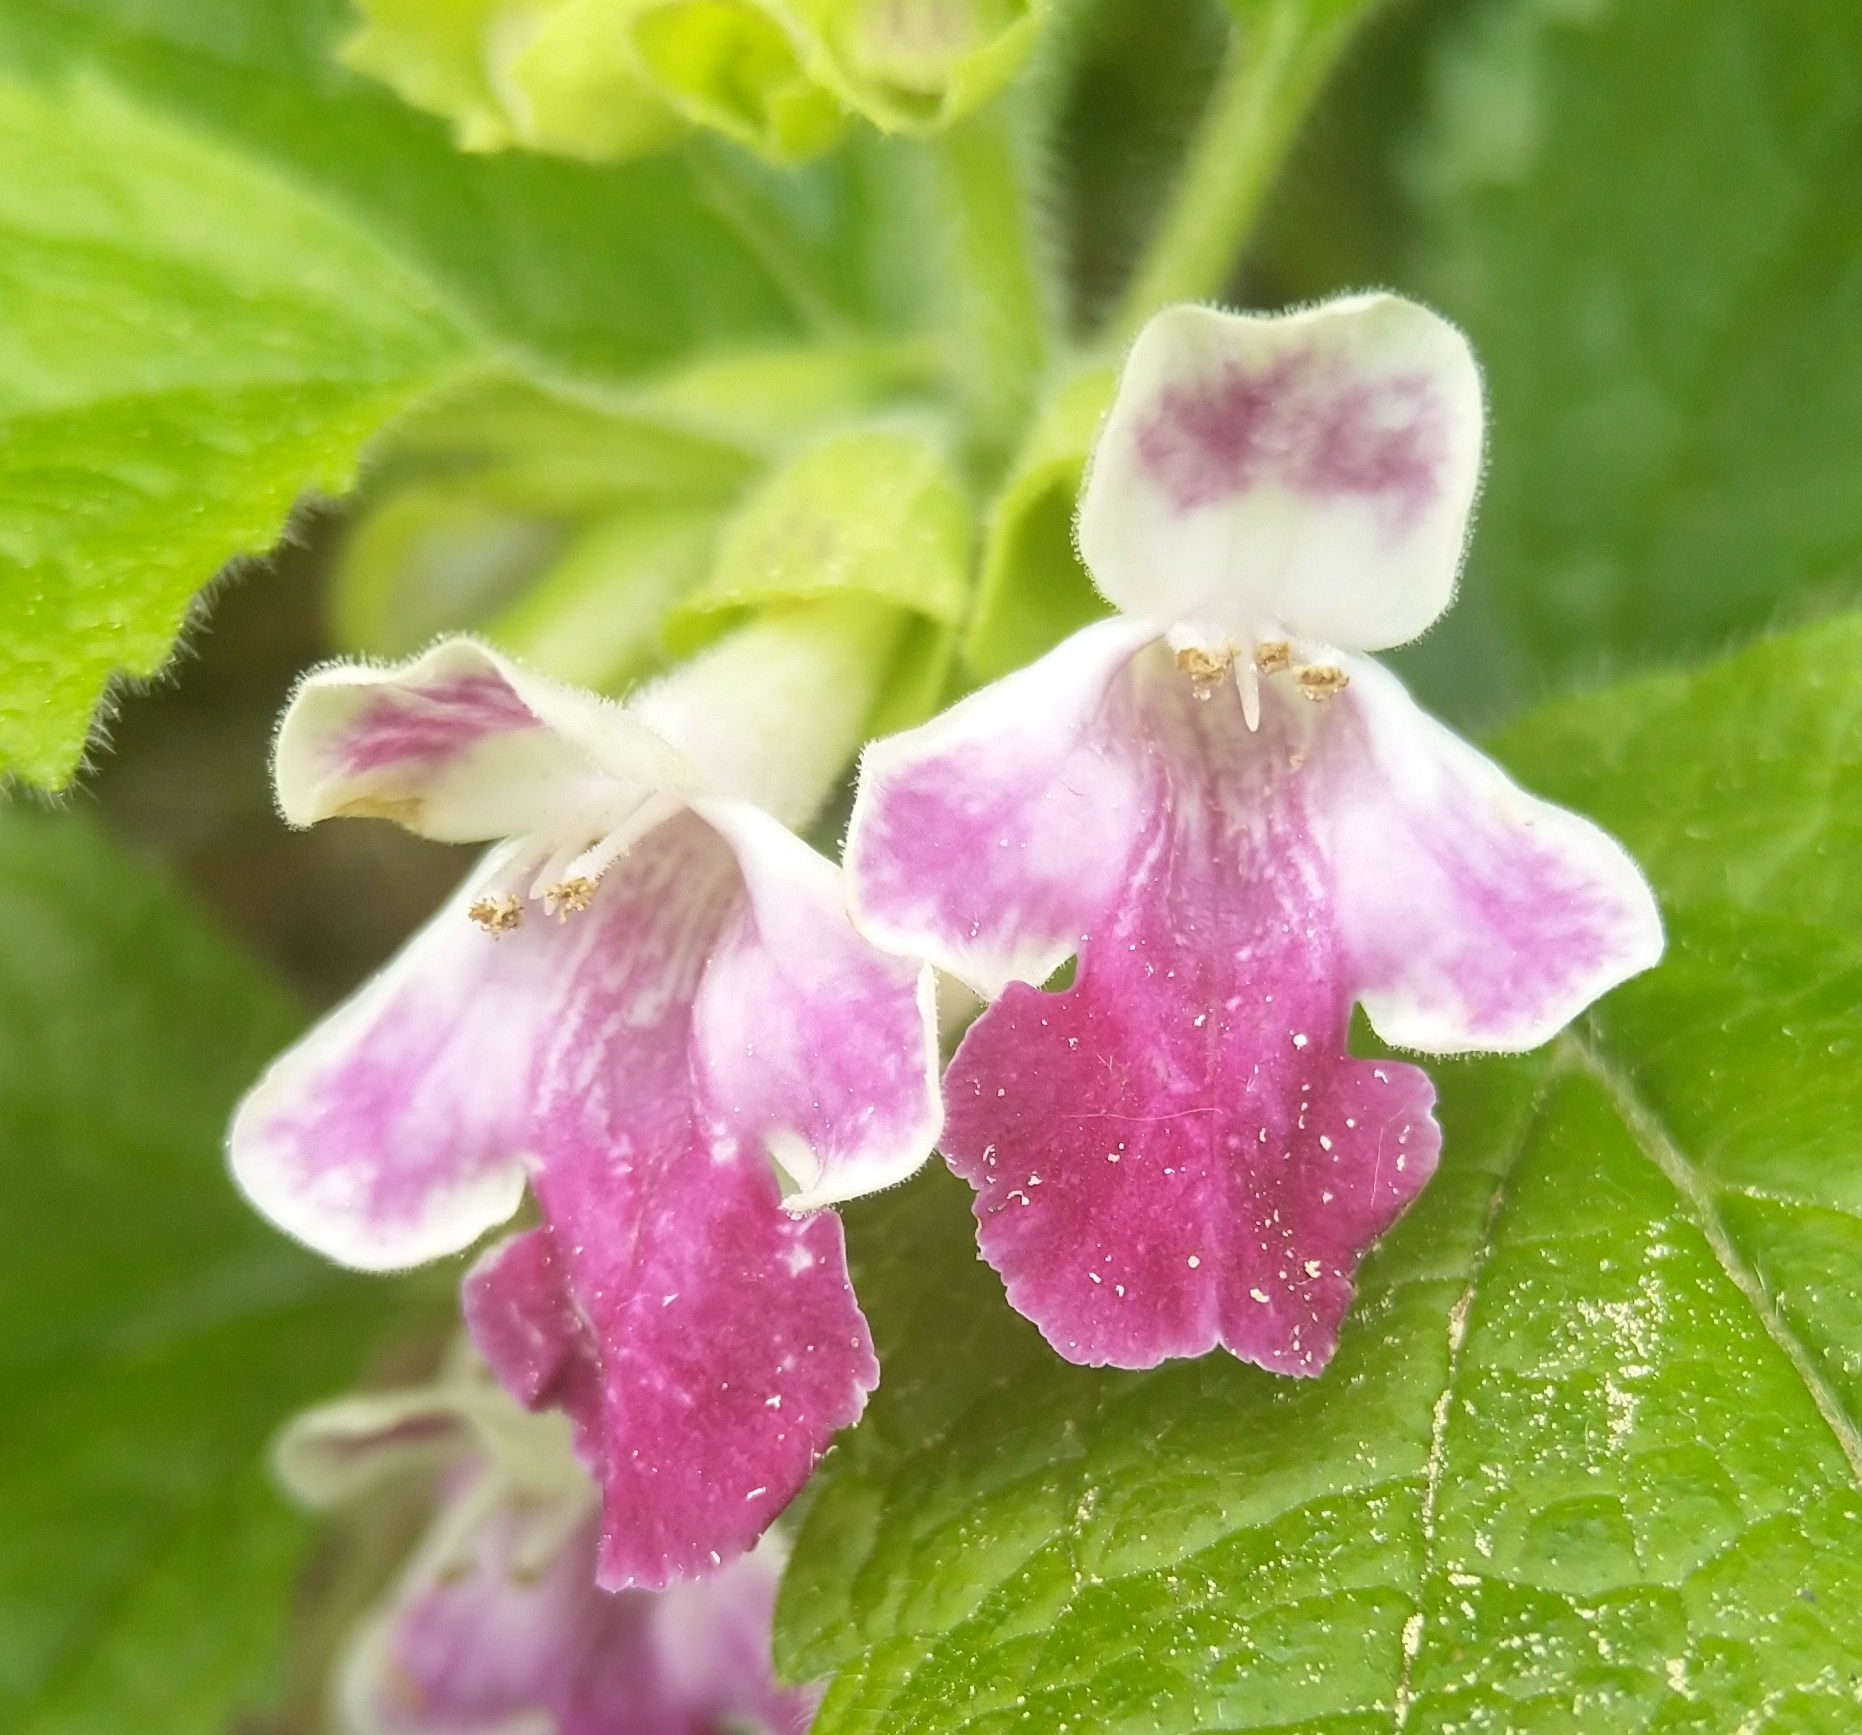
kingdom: Plantae
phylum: Tracheophyta
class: Magnoliopsida
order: Lamiales
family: Lamiaceae
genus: Melittis
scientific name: Melittis melissophyllum
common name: Bastard balm
